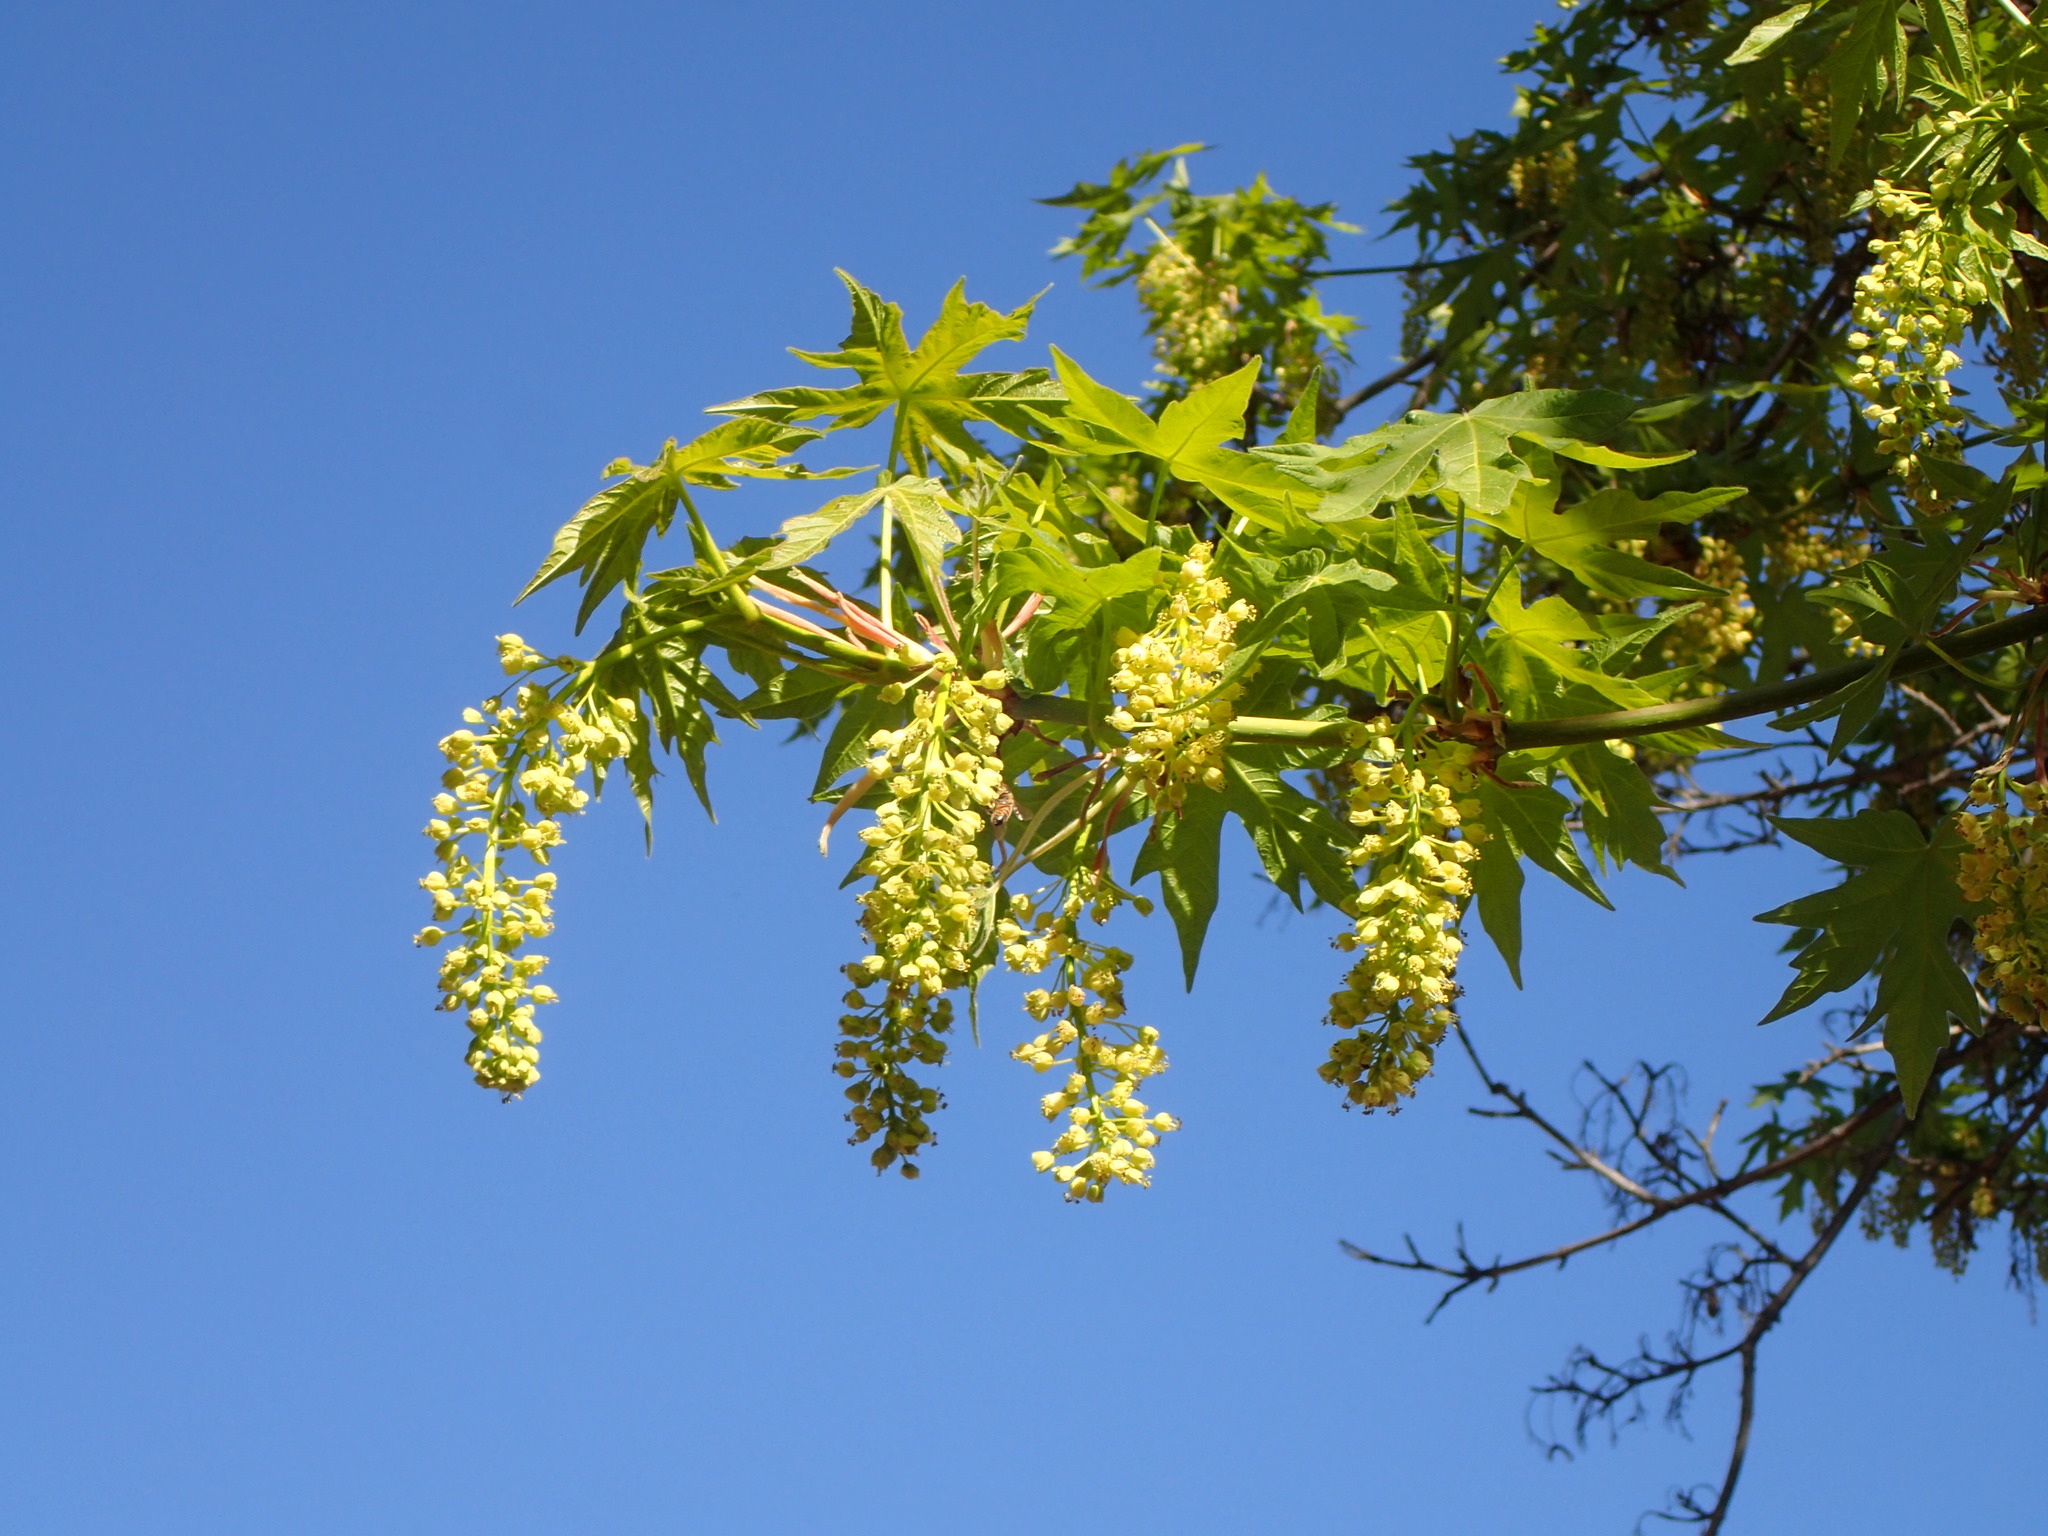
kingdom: Plantae
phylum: Tracheophyta
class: Magnoliopsida
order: Sapindales
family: Sapindaceae
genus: Acer
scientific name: Acer macrophyllum
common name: Oregon maple
